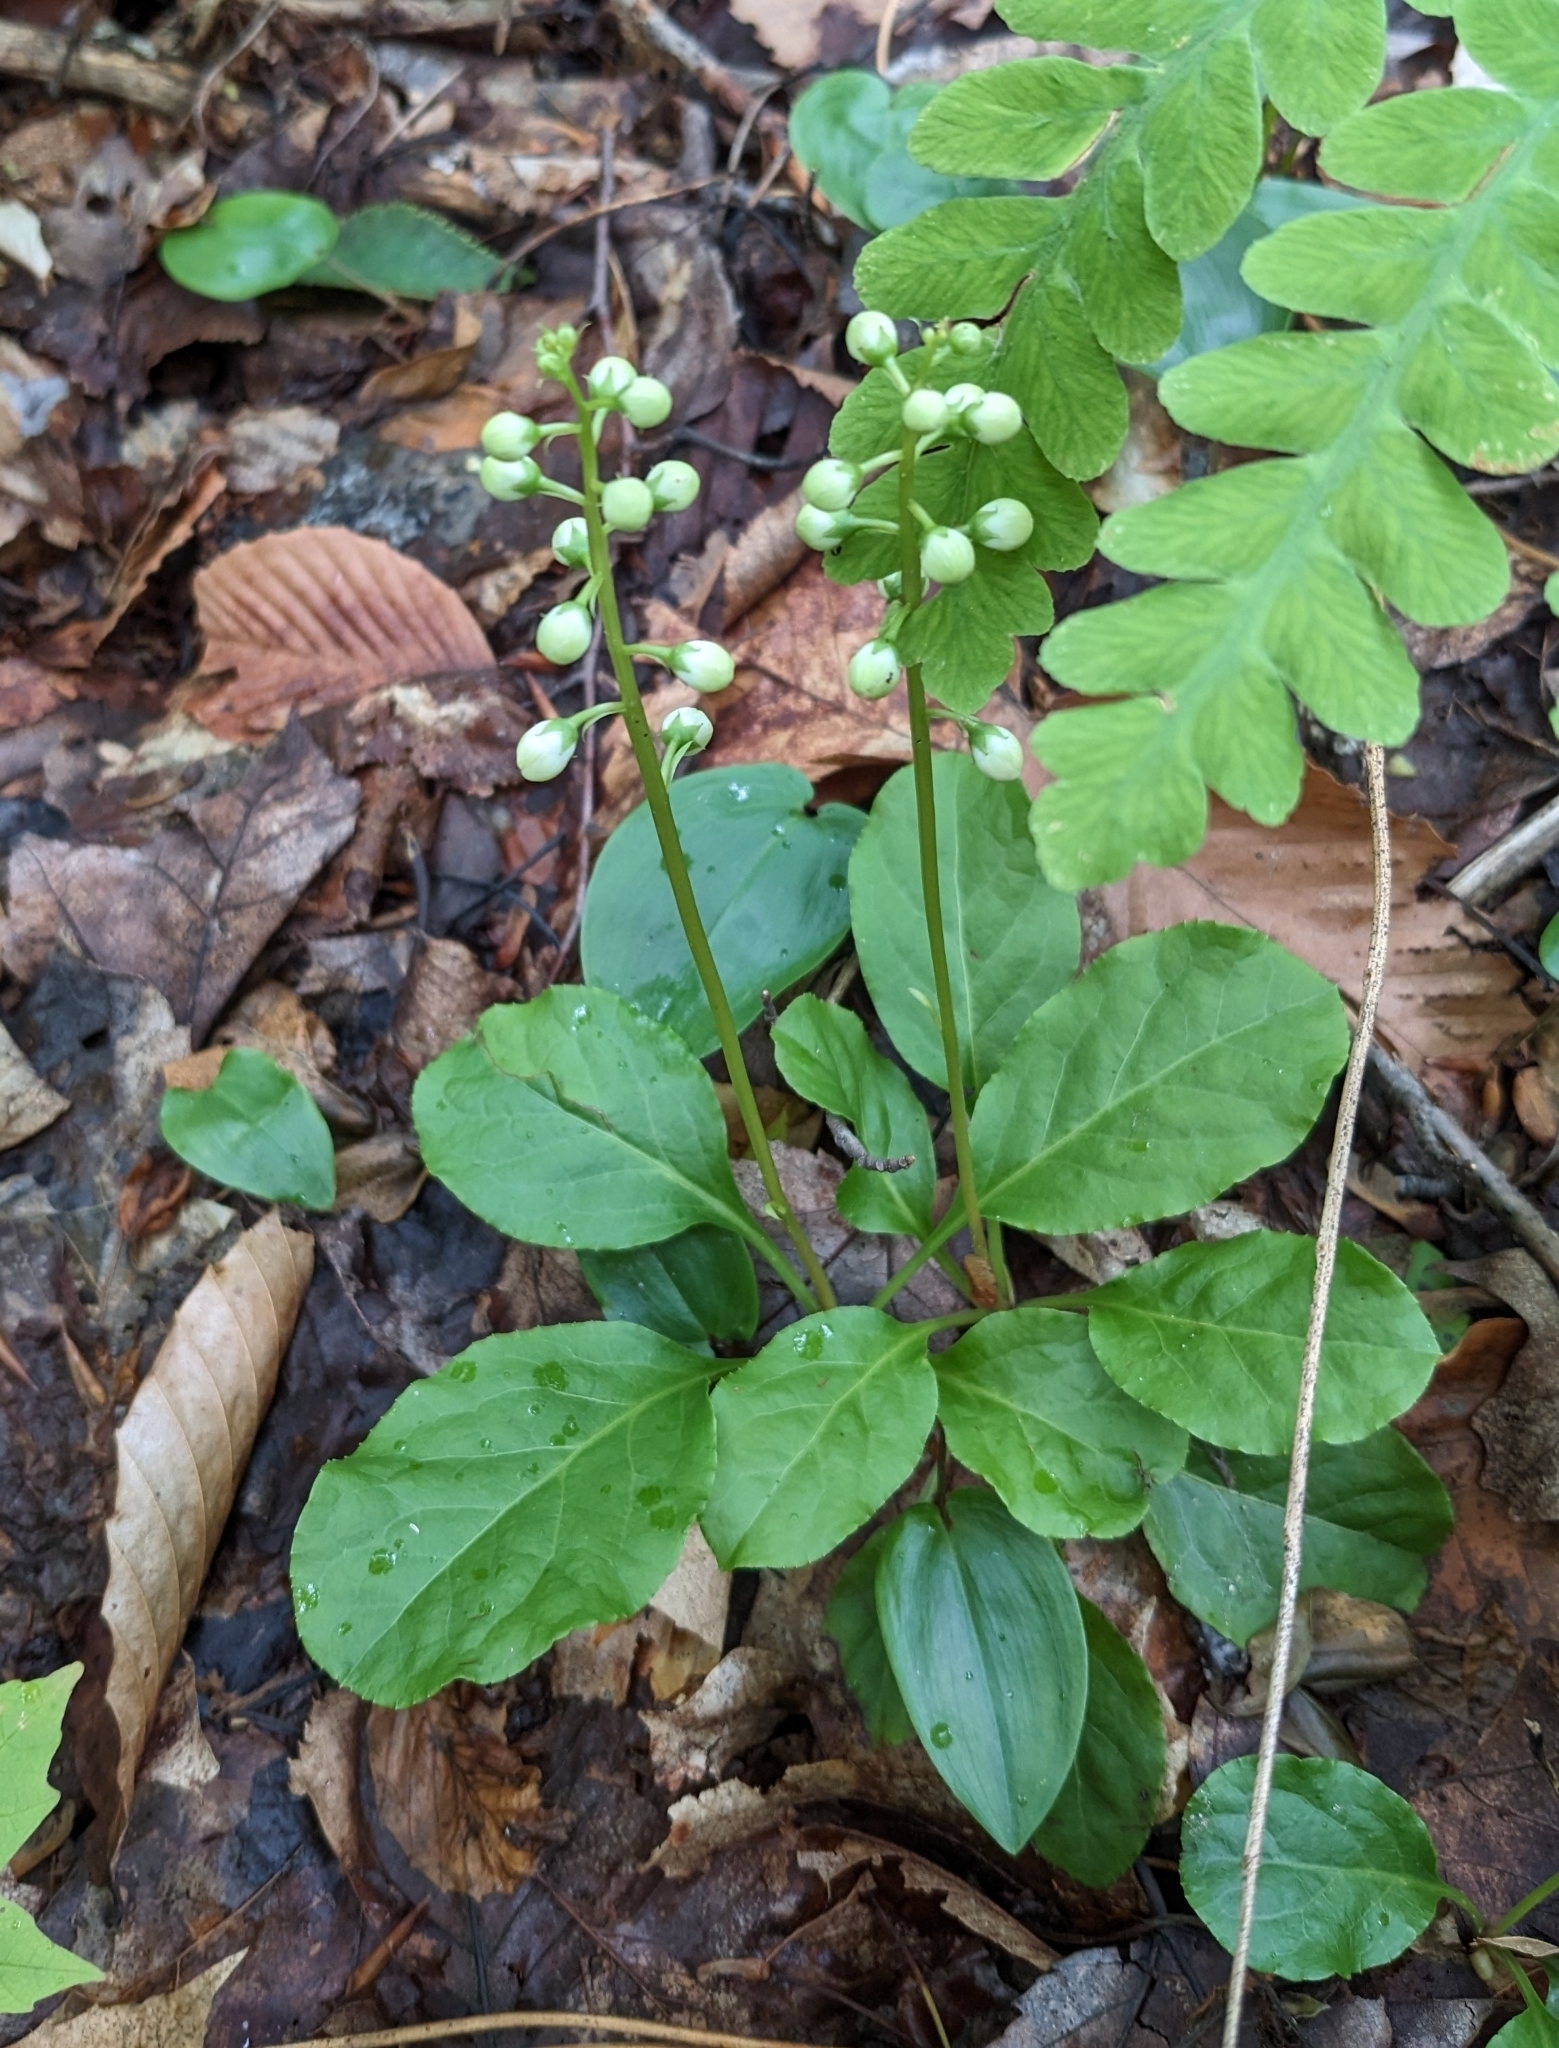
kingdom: Plantae
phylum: Tracheophyta
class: Magnoliopsida
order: Ericales
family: Ericaceae
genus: Pyrola
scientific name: Pyrola elliptica
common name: Shinleaf
